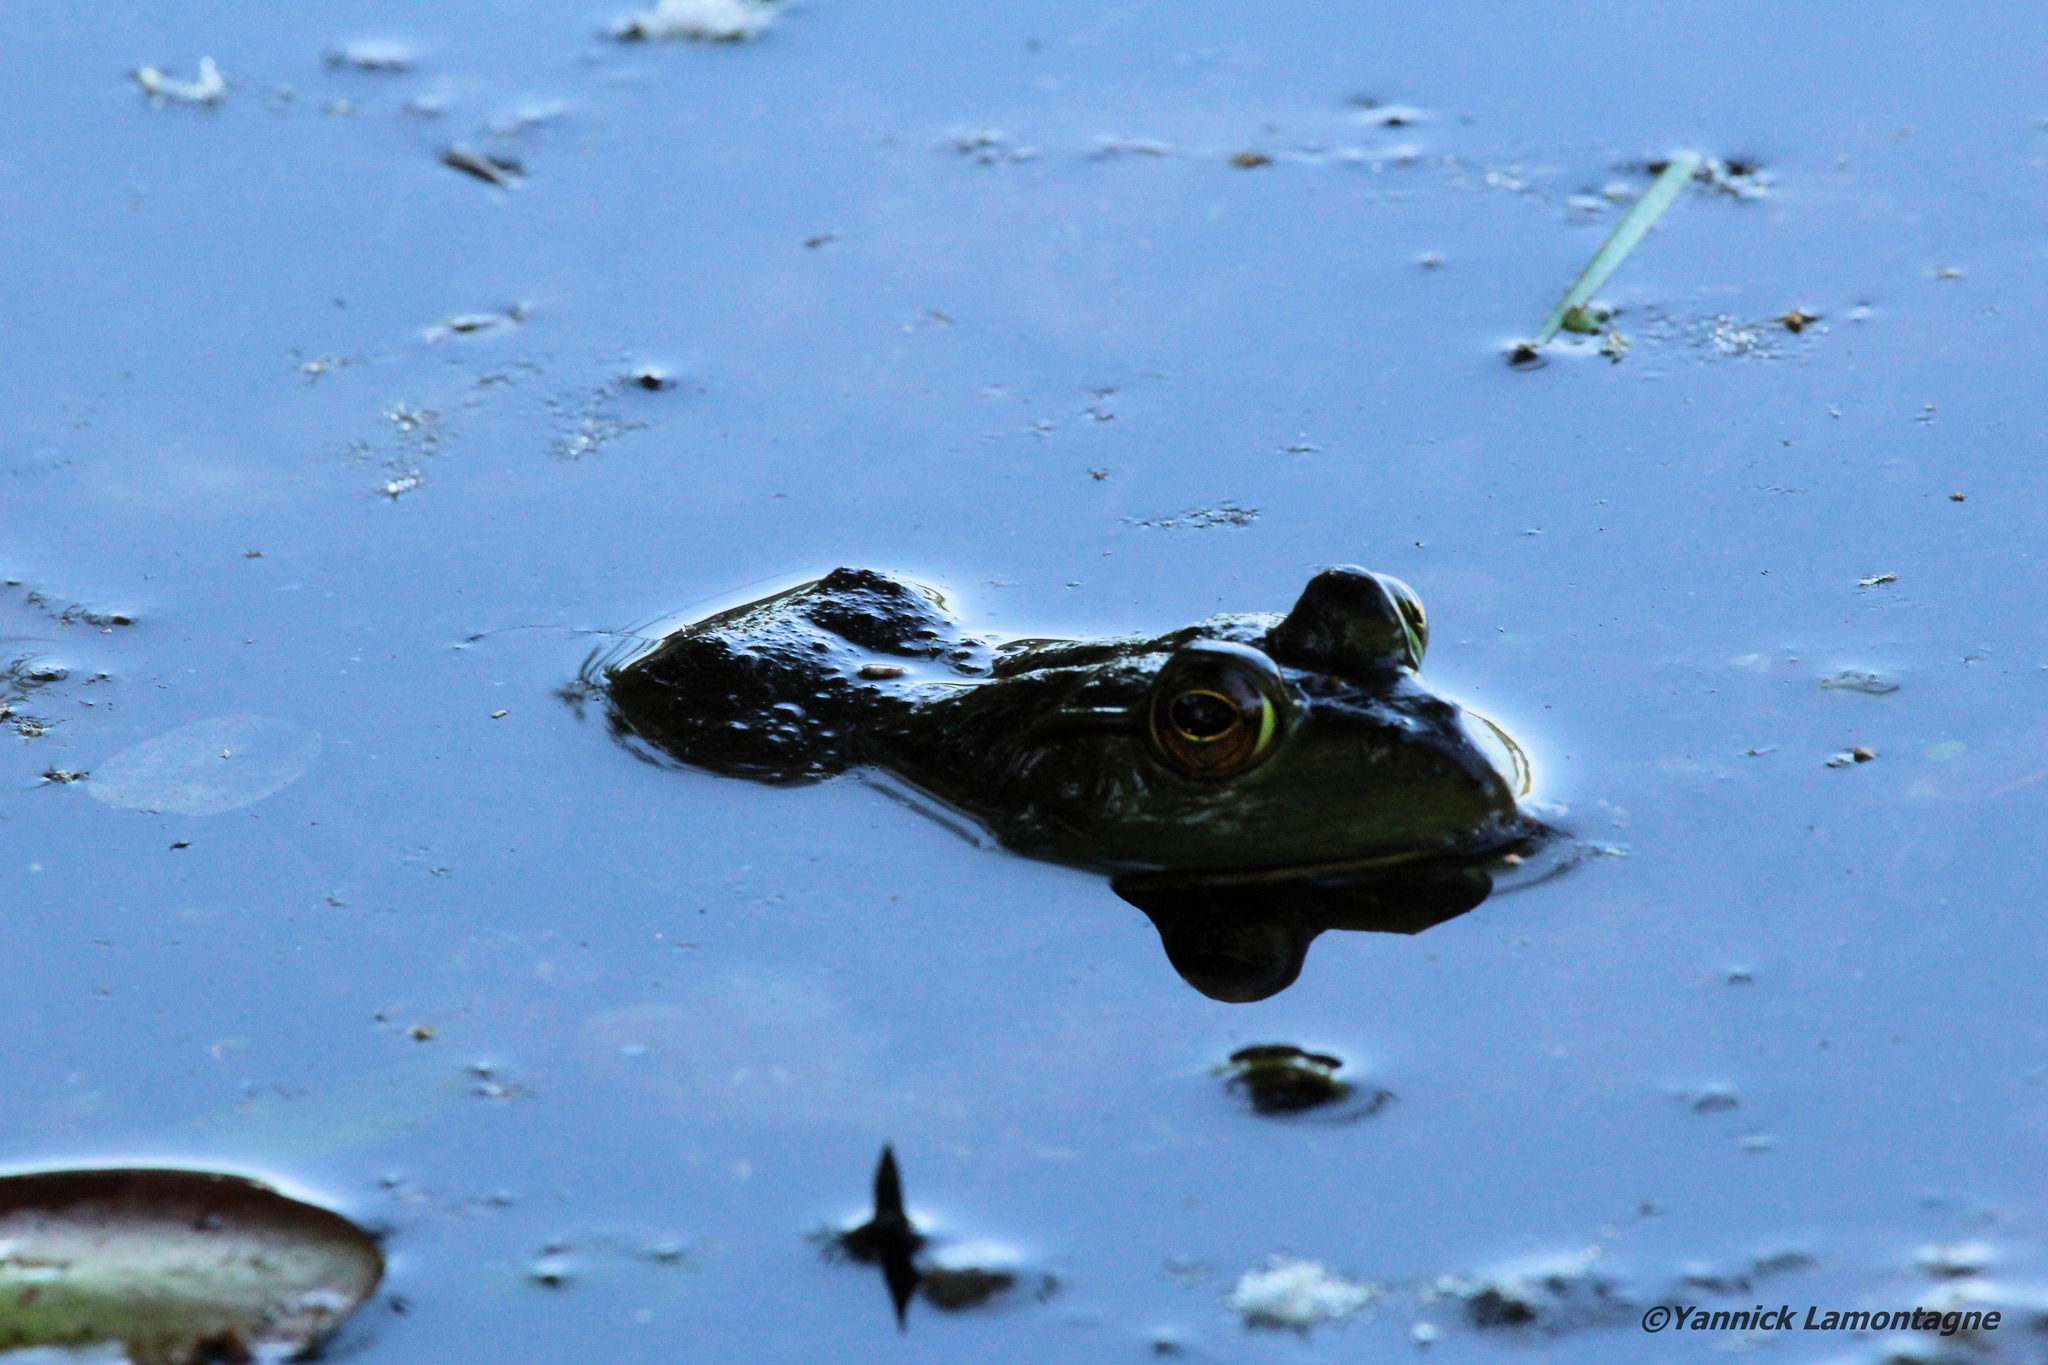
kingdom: Animalia
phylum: Chordata
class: Amphibia
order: Anura
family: Ranidae
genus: Lithobates
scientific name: Lithobates catesbeianus
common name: American bullfrog
